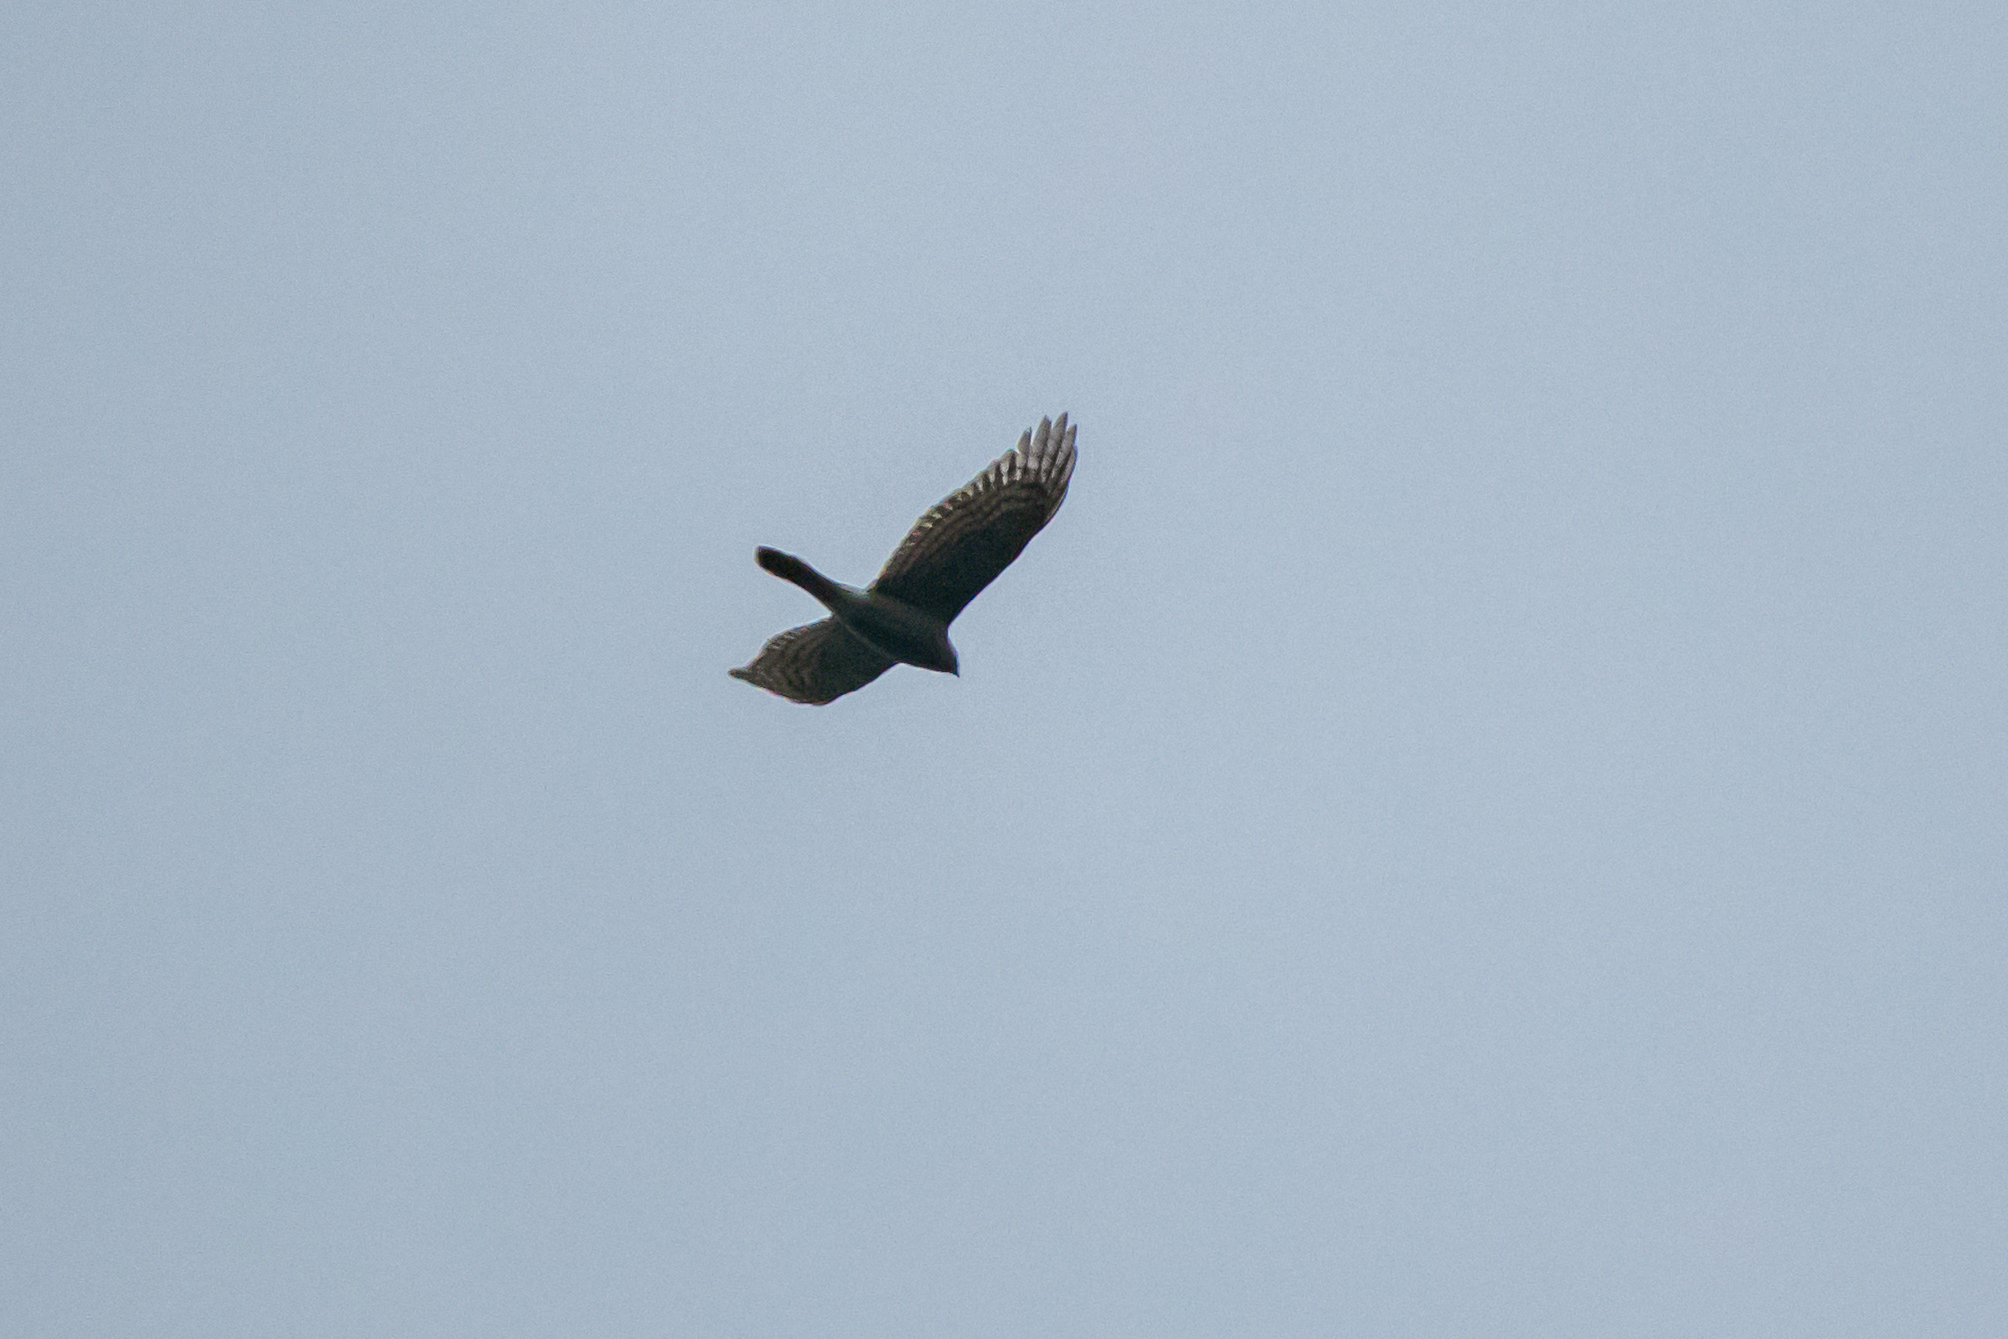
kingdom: Animalia
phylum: Chordata
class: Aves
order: Accipitriformes
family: Accipitridae
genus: Accipiter
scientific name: Accipiter nisus
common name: Eurasian sparrowhawk
